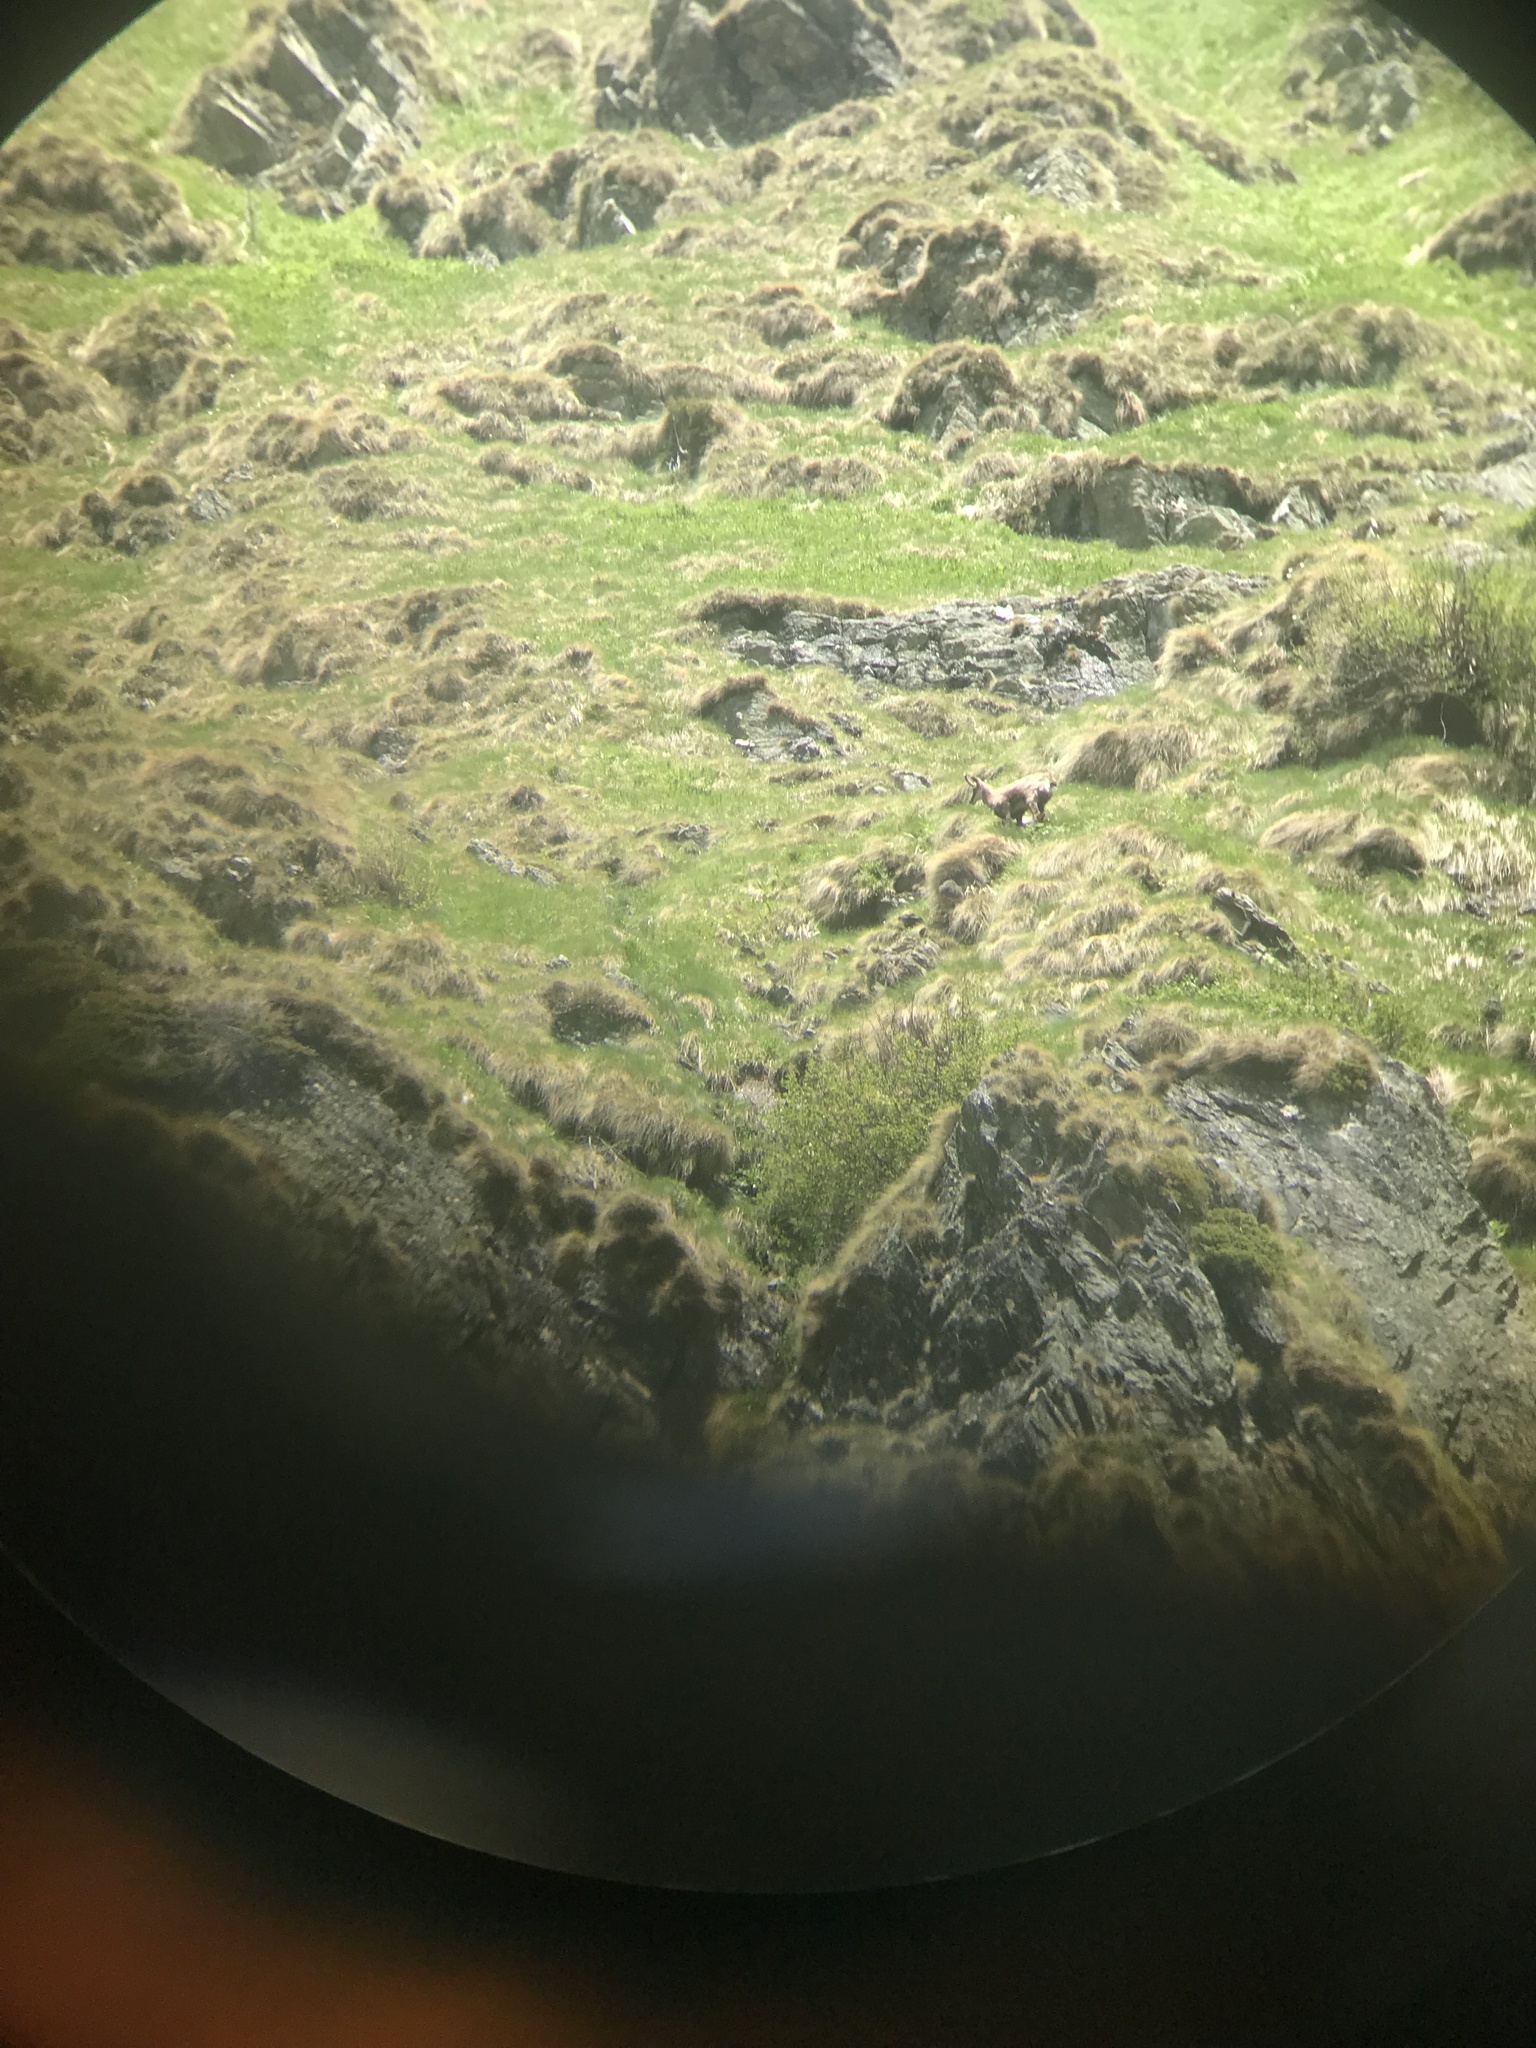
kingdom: Animalia
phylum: Chordata
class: Mammalia
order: Artiodactyla
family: Bovidae
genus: Rupicapra
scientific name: Rupicapra rupicapra
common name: Chamois
